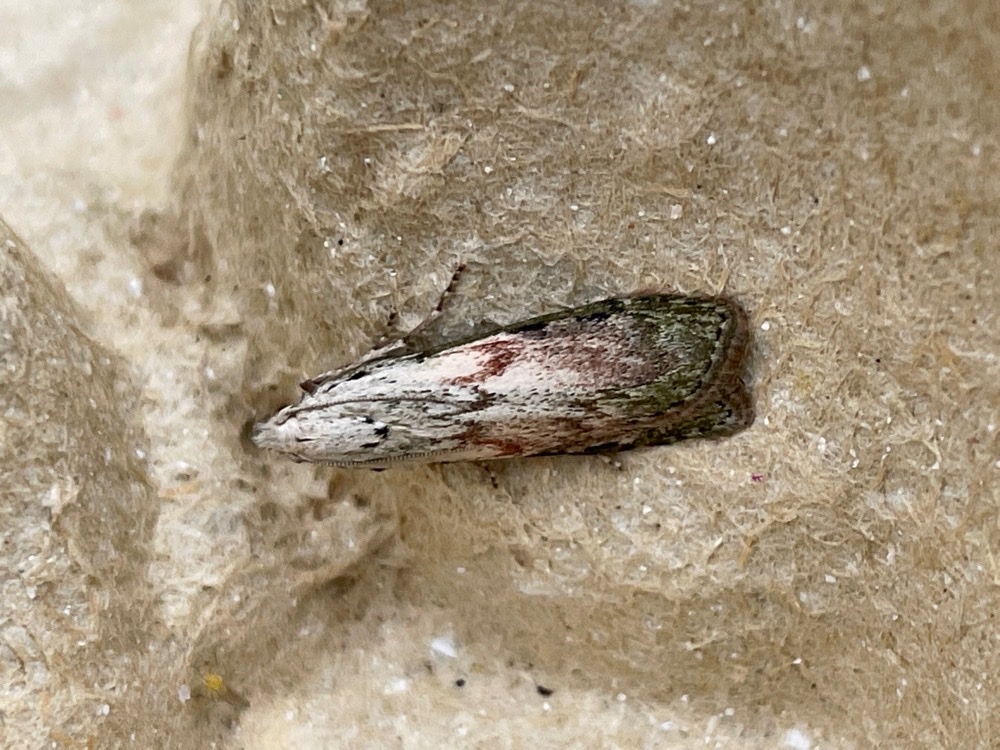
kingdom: Animalia
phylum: Arthropoda
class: Insecta
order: Lepidoptera
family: Pyralidae
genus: Aphomia
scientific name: Aphomia sociella
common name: Bee moth
